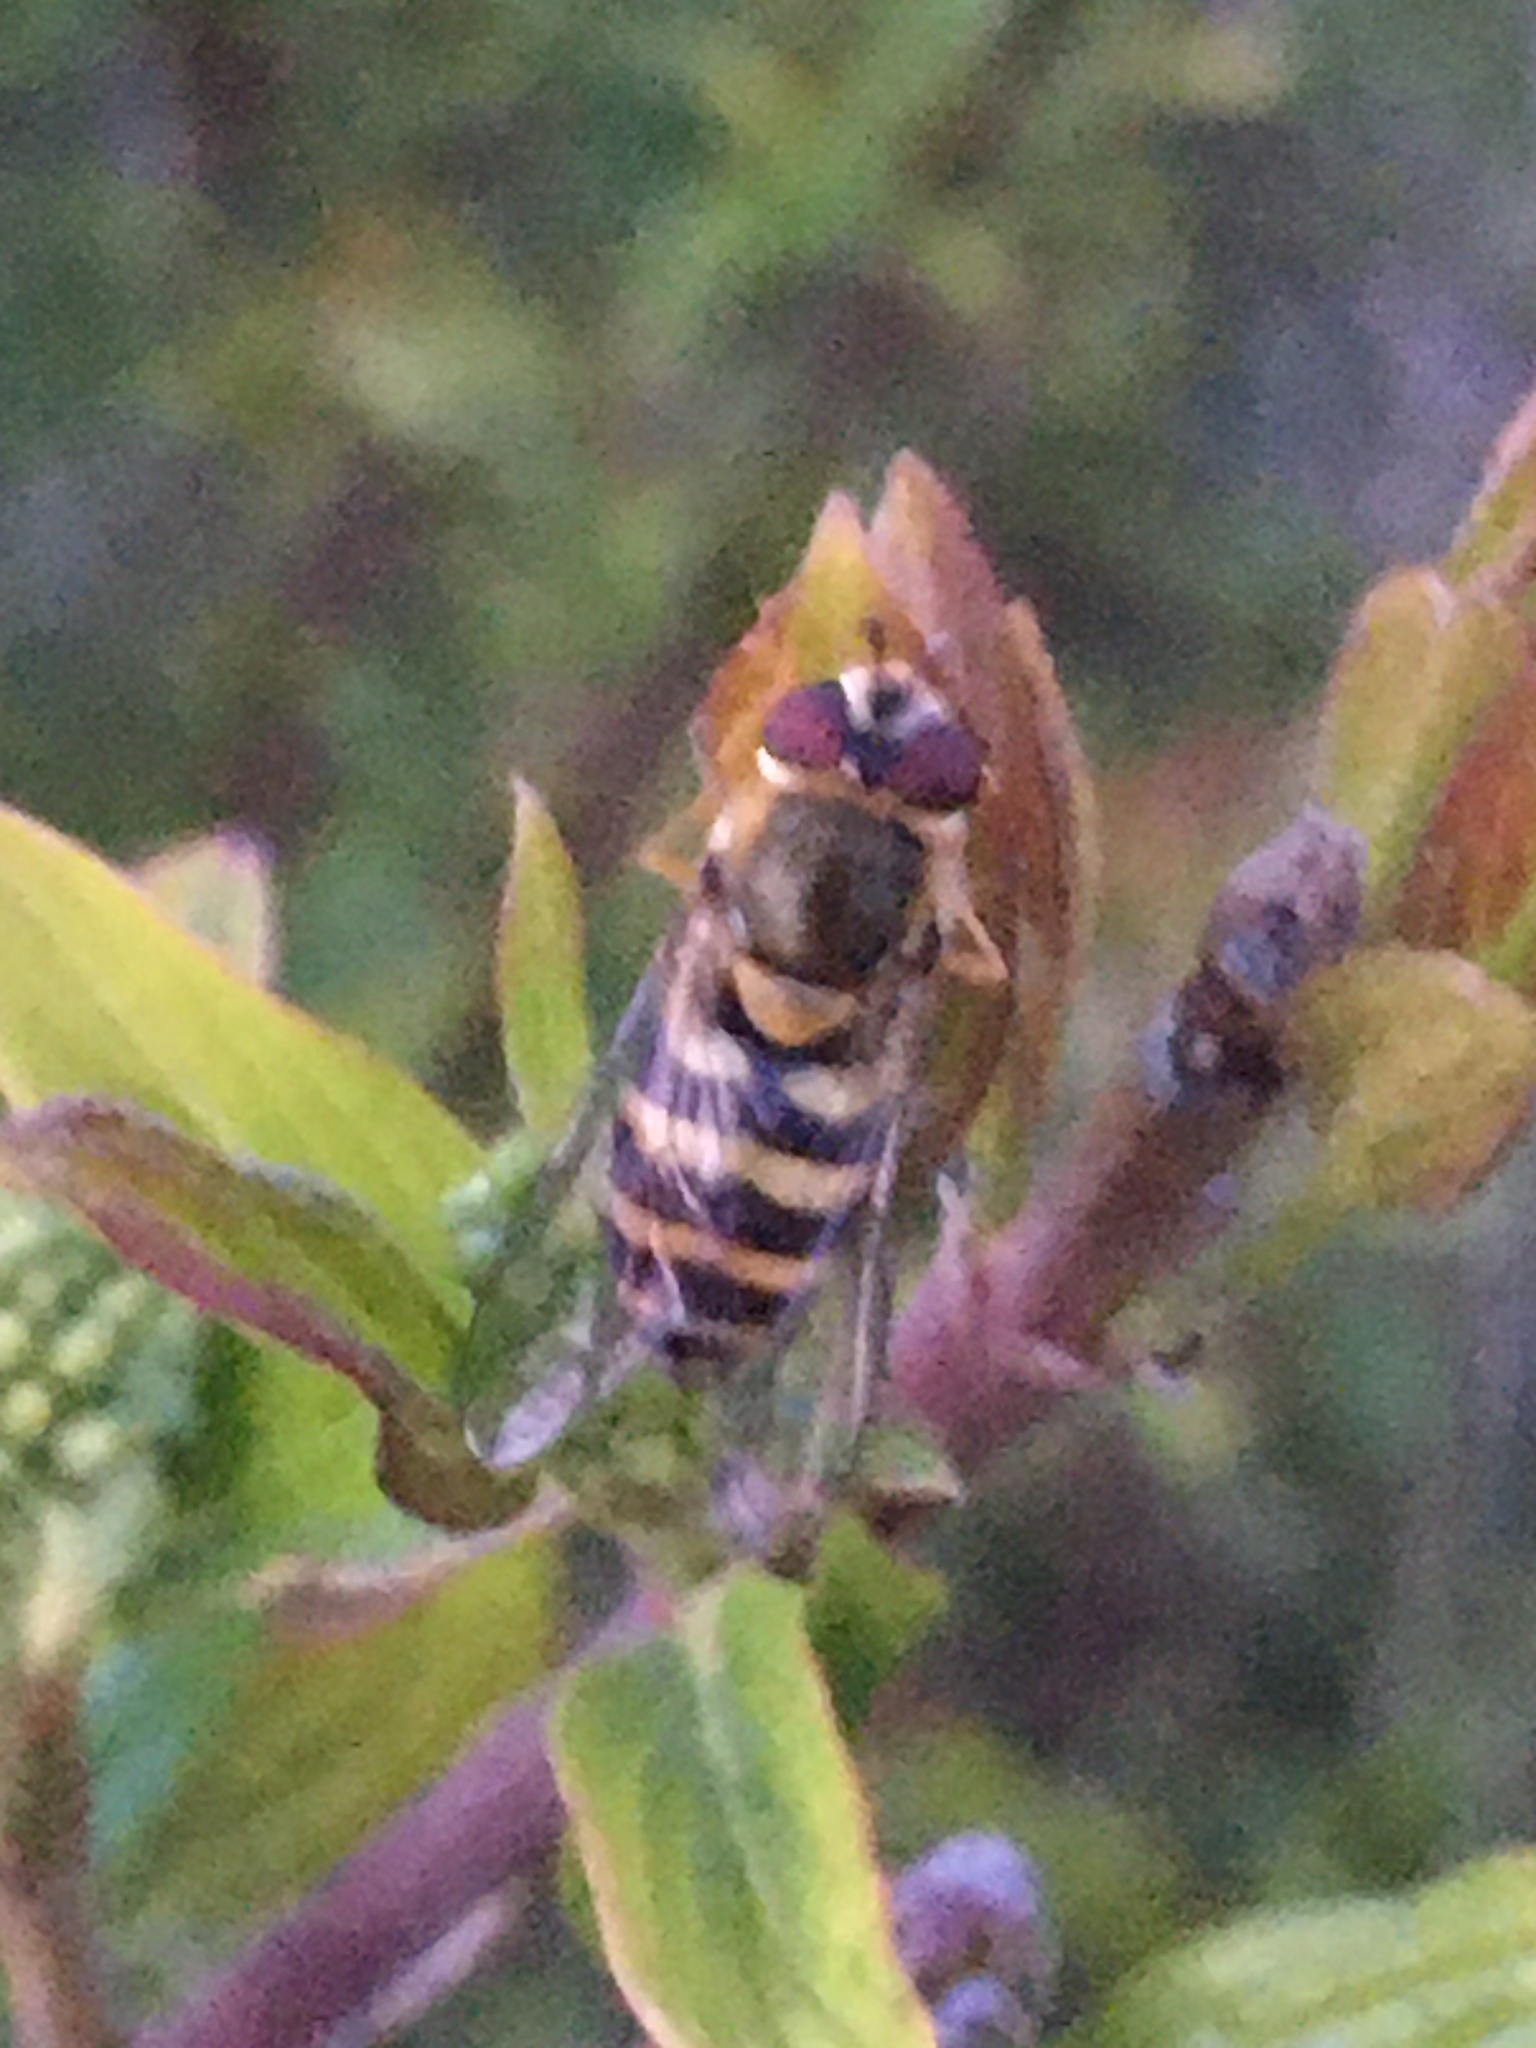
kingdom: Animalia
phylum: Arthropoda
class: Insecta
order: Diptera
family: Syrphidae
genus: Syrphus
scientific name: Syrphus
